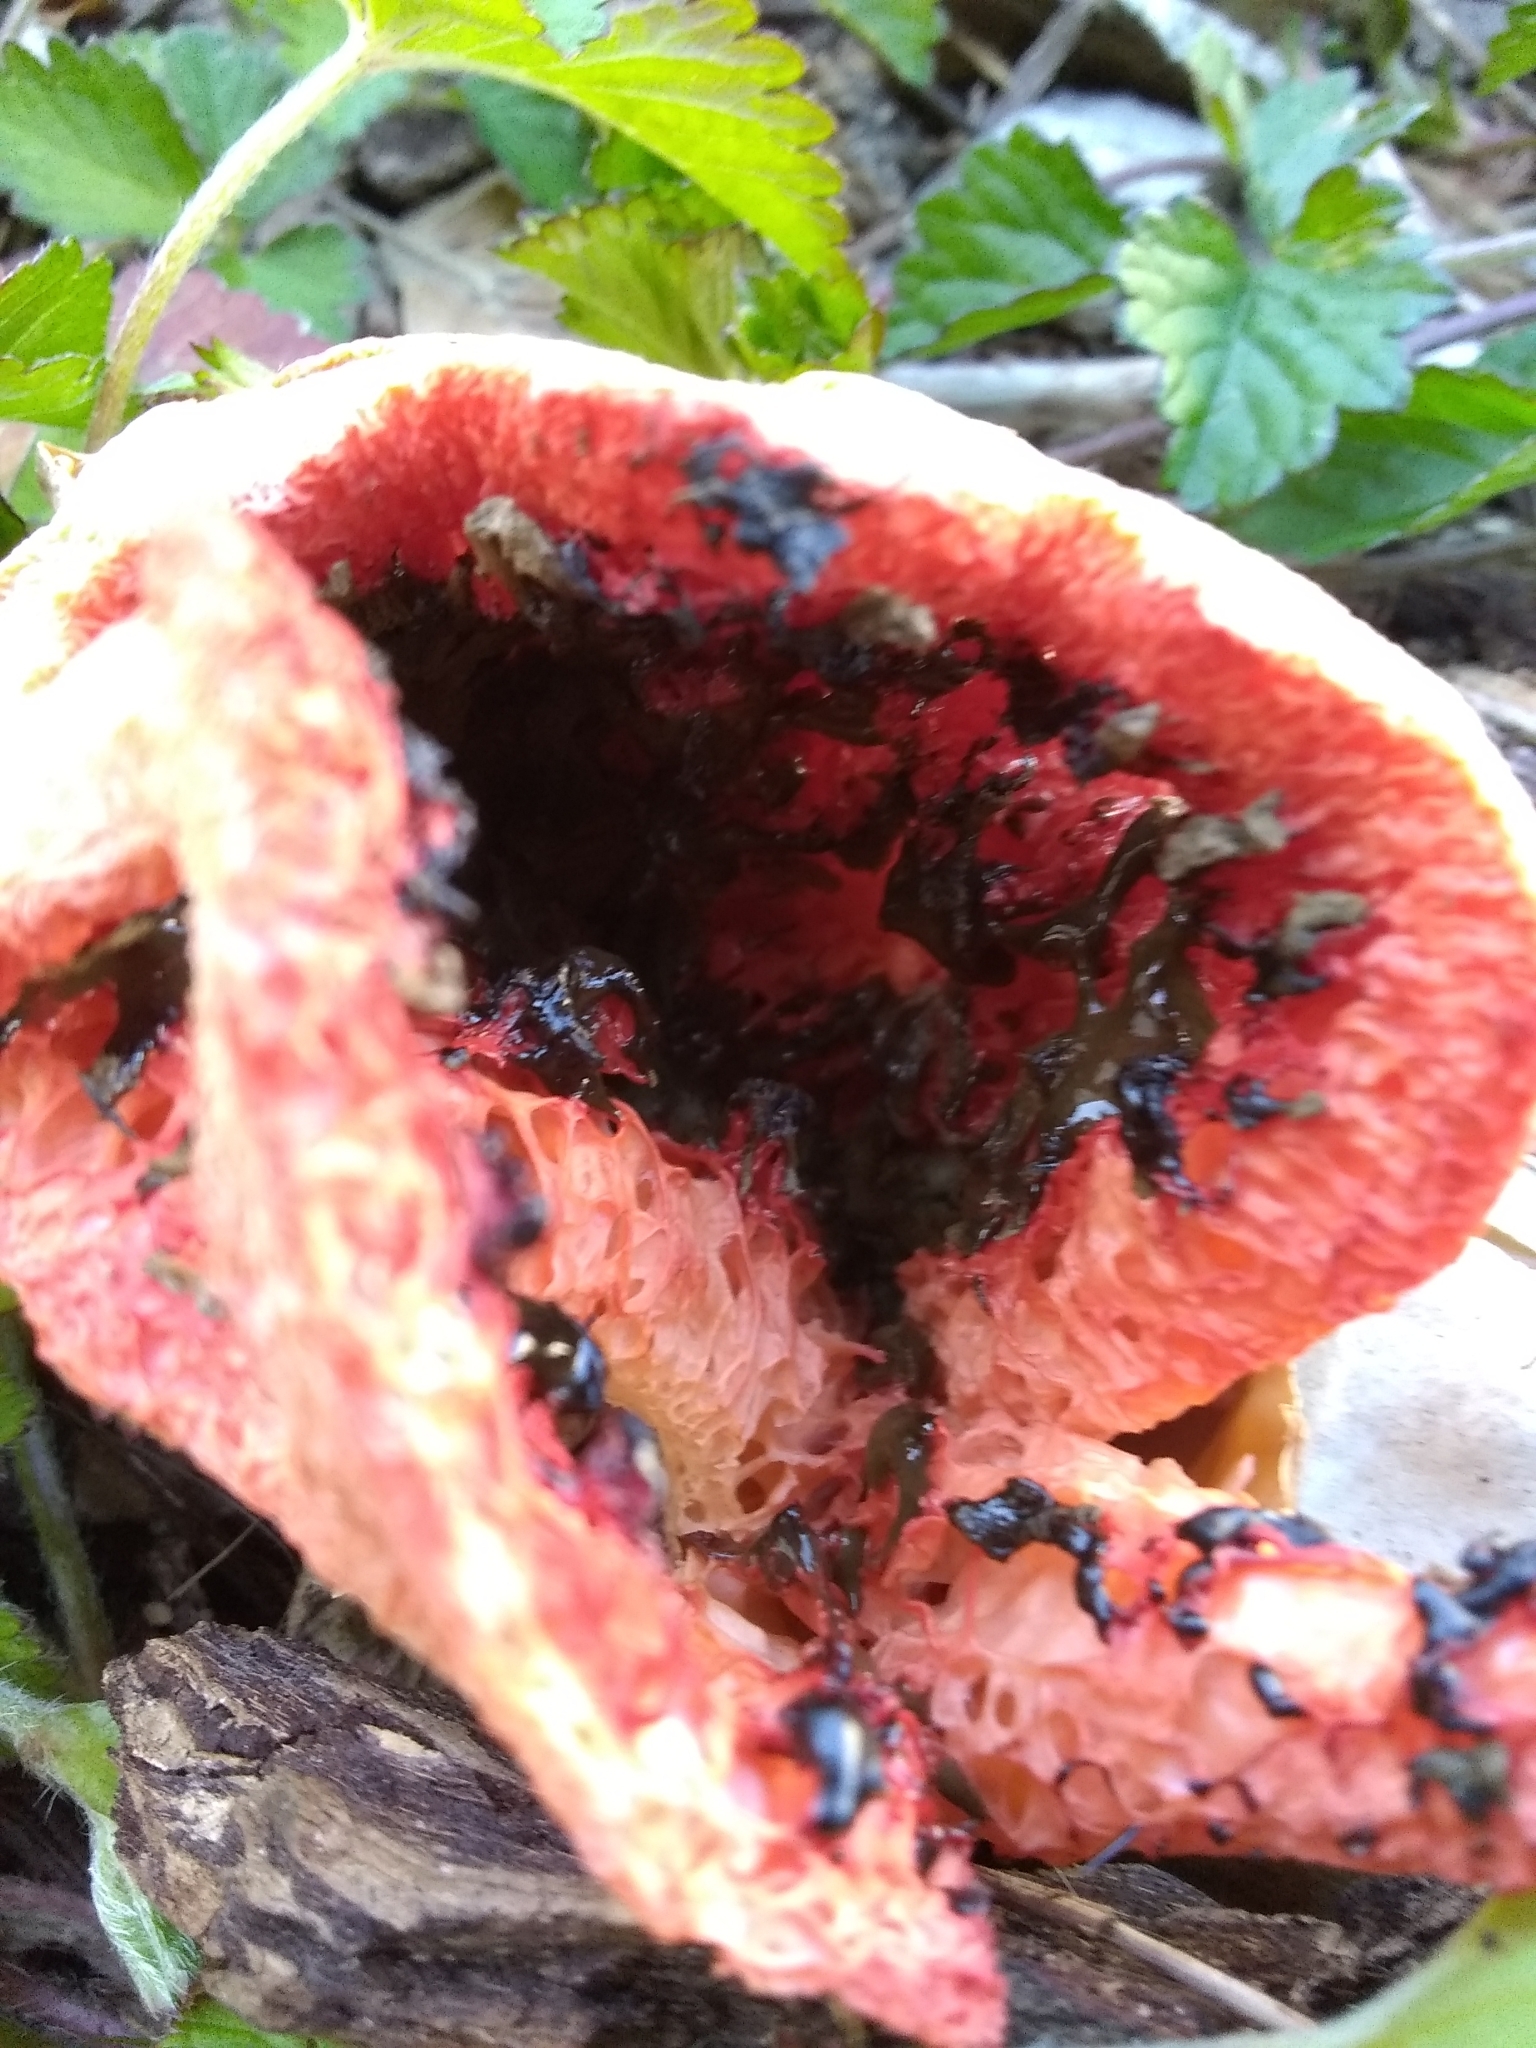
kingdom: Fungi
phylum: Basidiomycota
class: Agaricomycetes
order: Phallales
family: Phallaceae
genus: Clathrus
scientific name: Clathrus ruber
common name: Red cage
